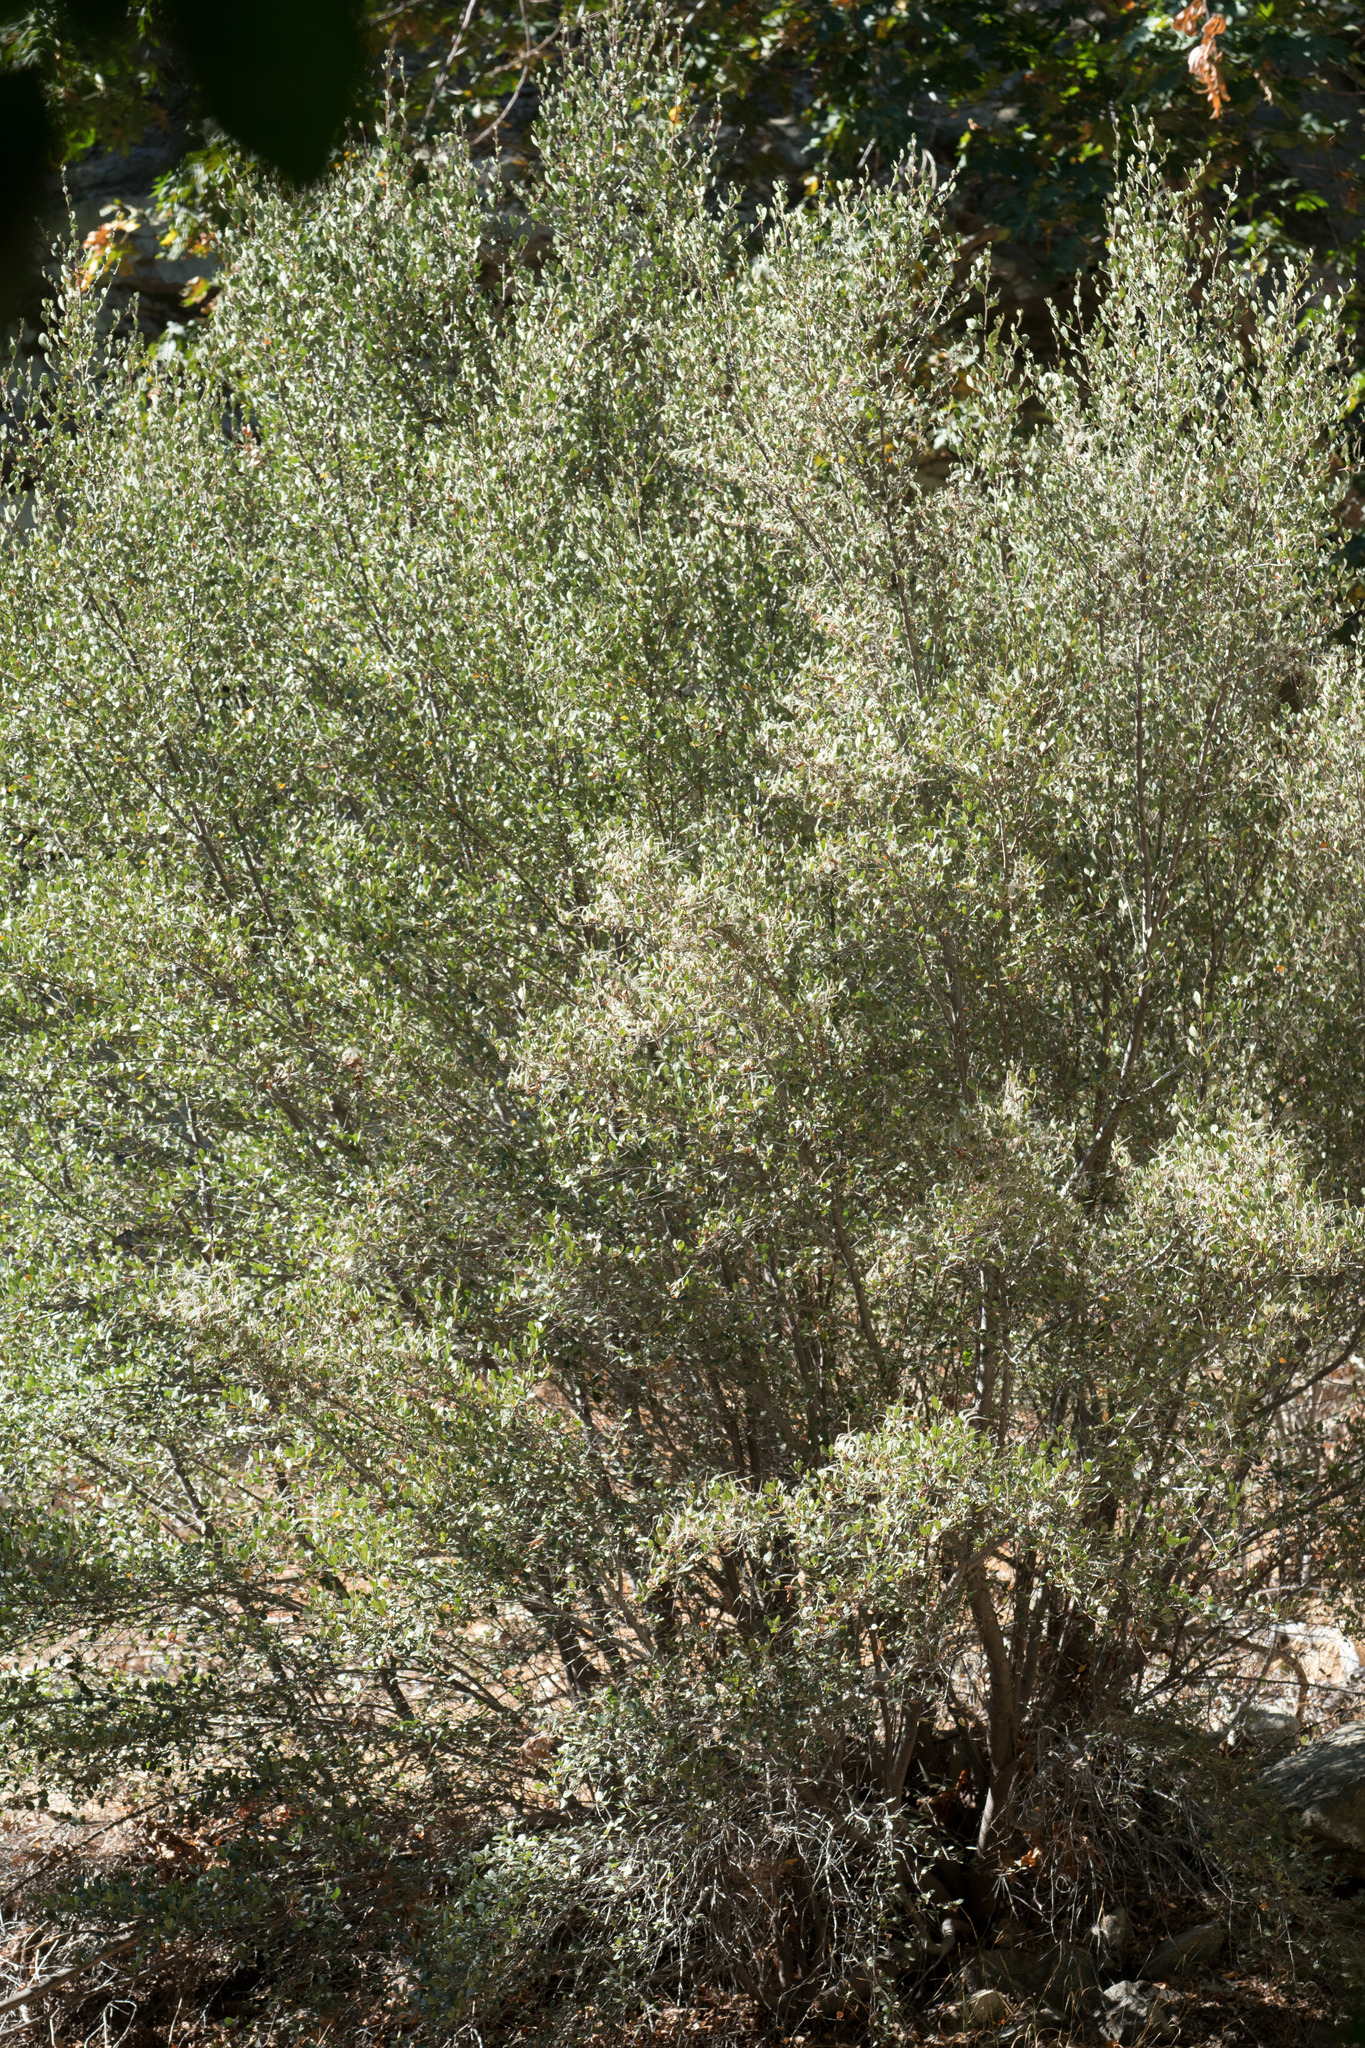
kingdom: Plantae
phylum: Tracheophyta
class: Magnoliopsida
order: Rosales
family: Rosaceae
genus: Cercocarpus
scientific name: Cercocarpus betuloides
